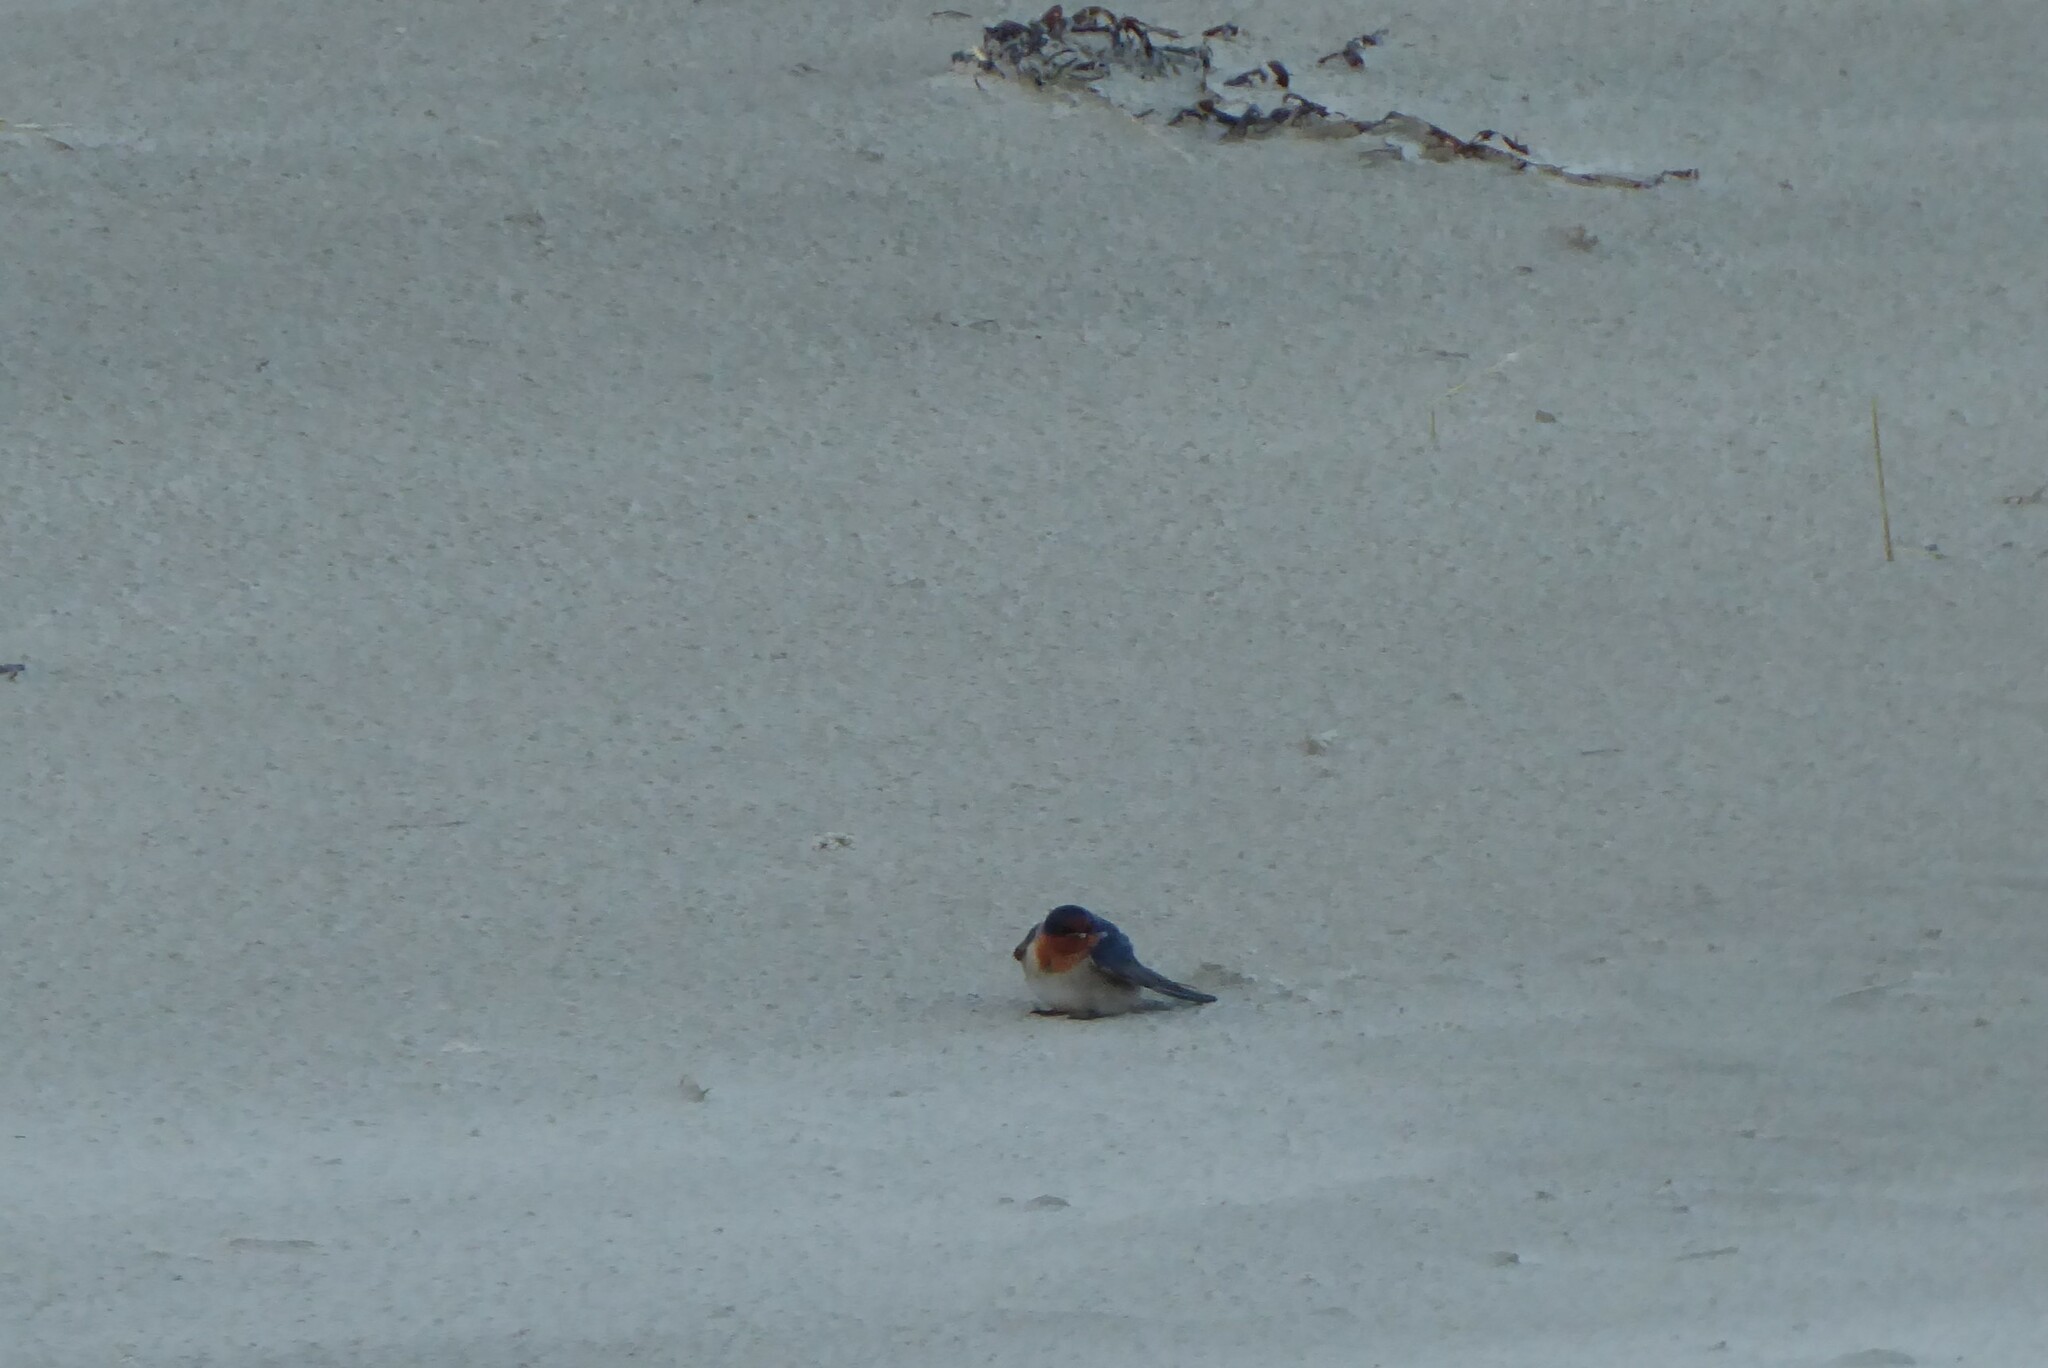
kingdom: Animalia
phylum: Chordata
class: Aves
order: Passeriformes
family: Hirundinidae
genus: Hirundo
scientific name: Hirundo neoxena
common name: Welcome swallow
